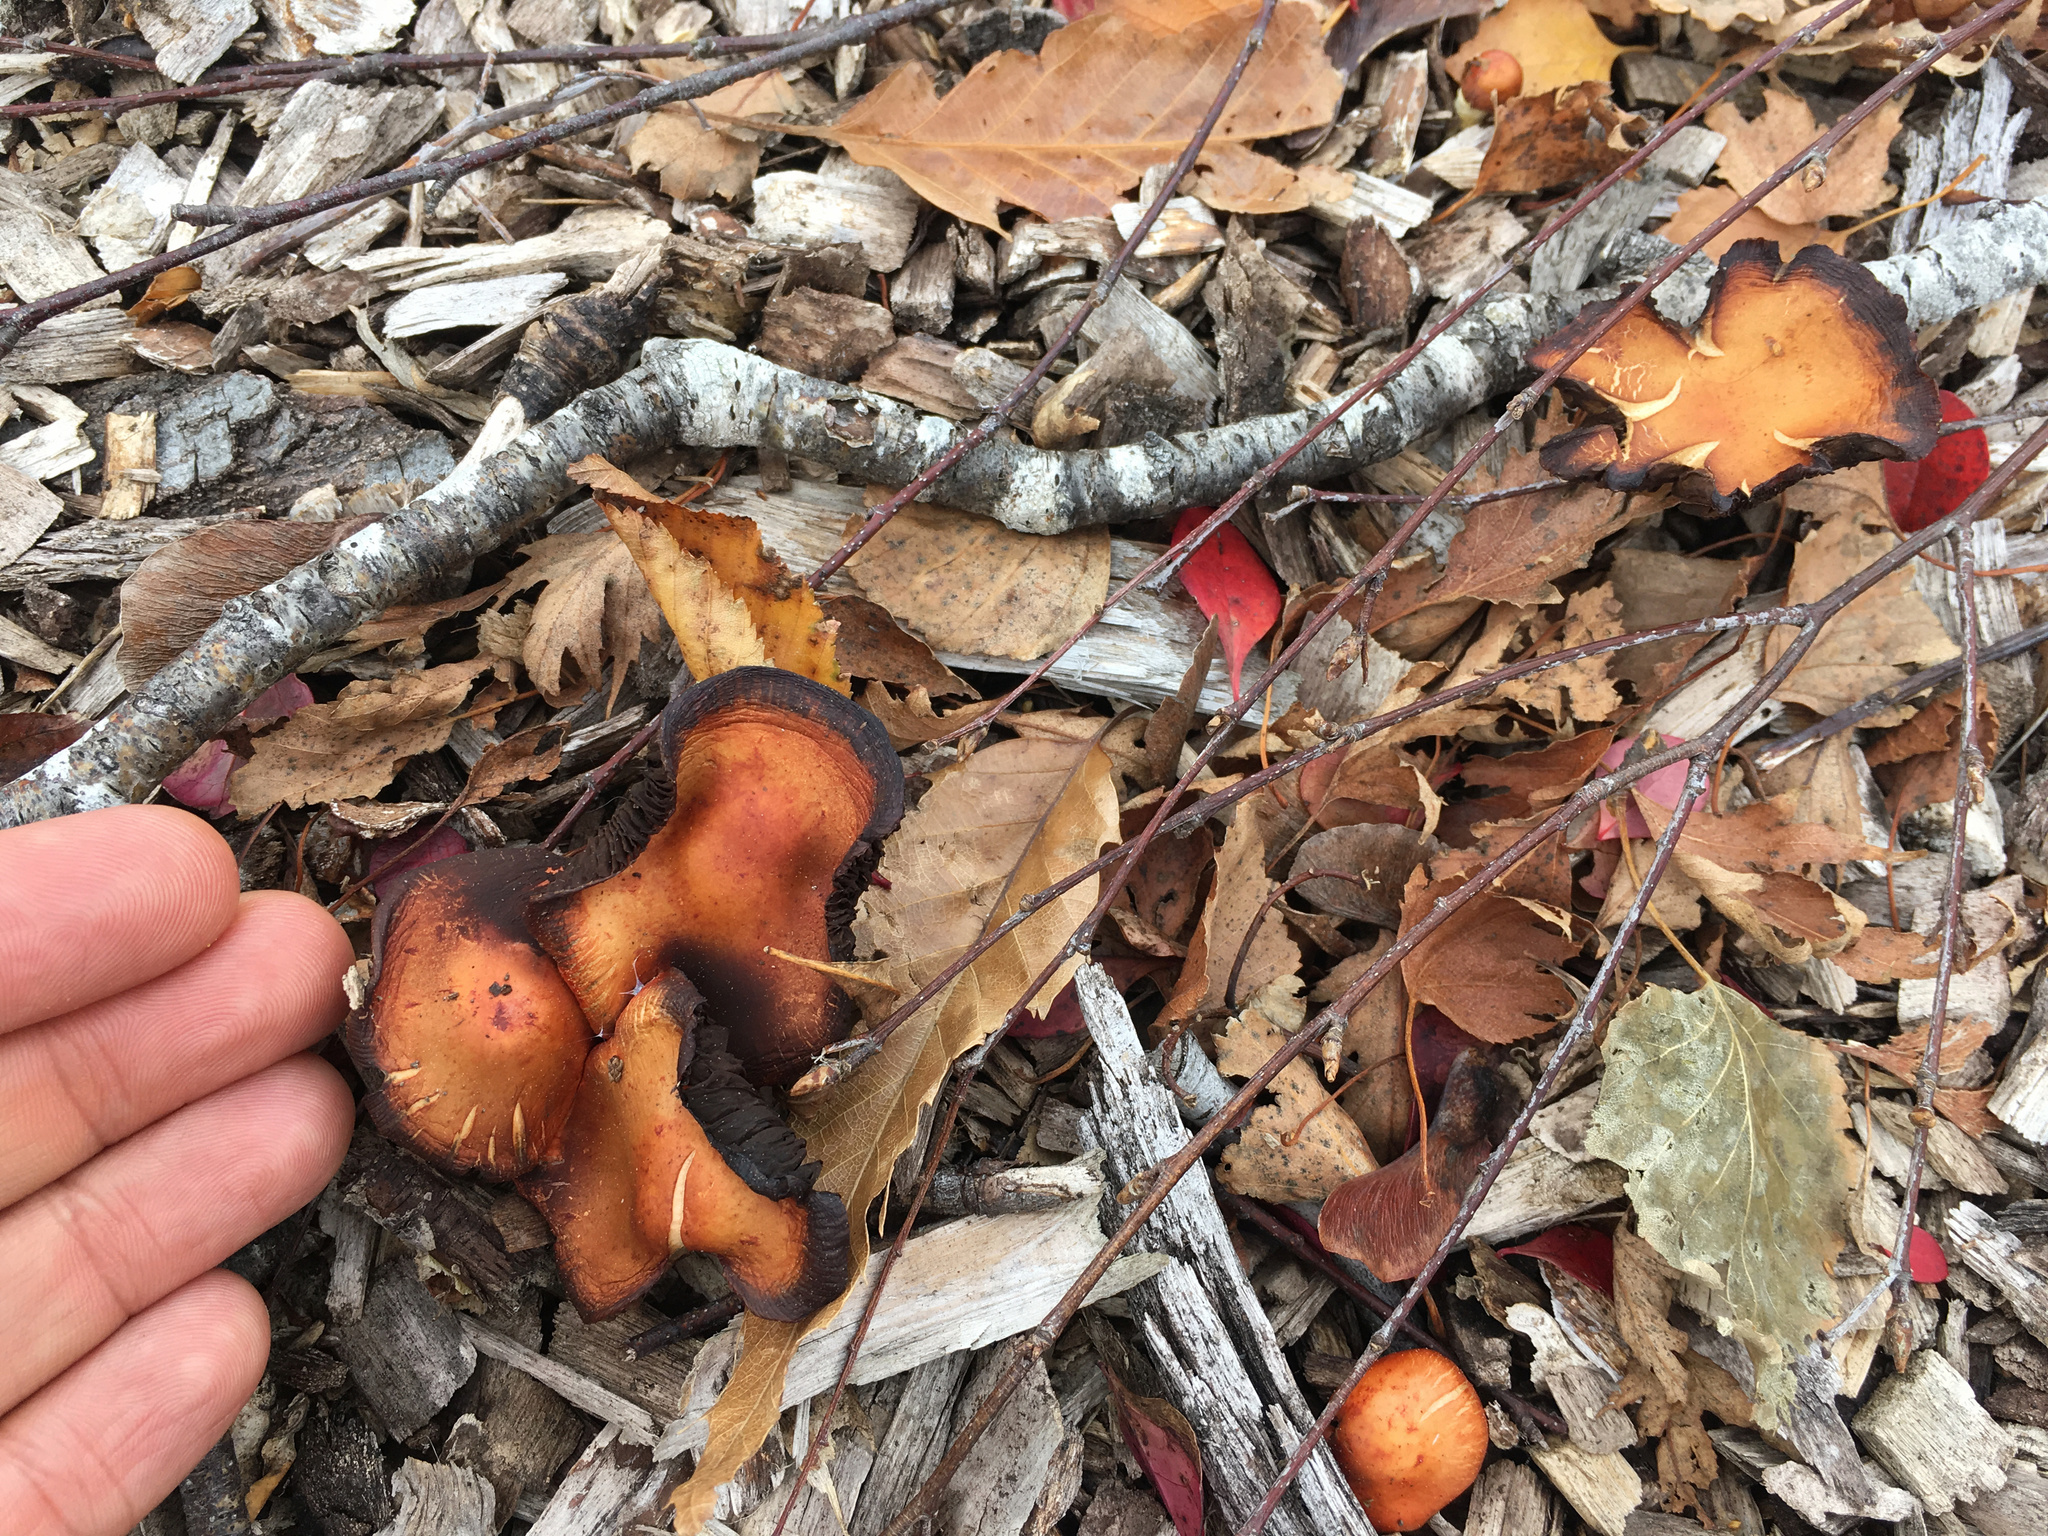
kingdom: Fungi
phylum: Basidiomycota
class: Agaricomycetes
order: Agaricales
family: Strophariaceae
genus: Leratiomyces
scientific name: Leratiomyces ceres
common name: Redlead roundhead
